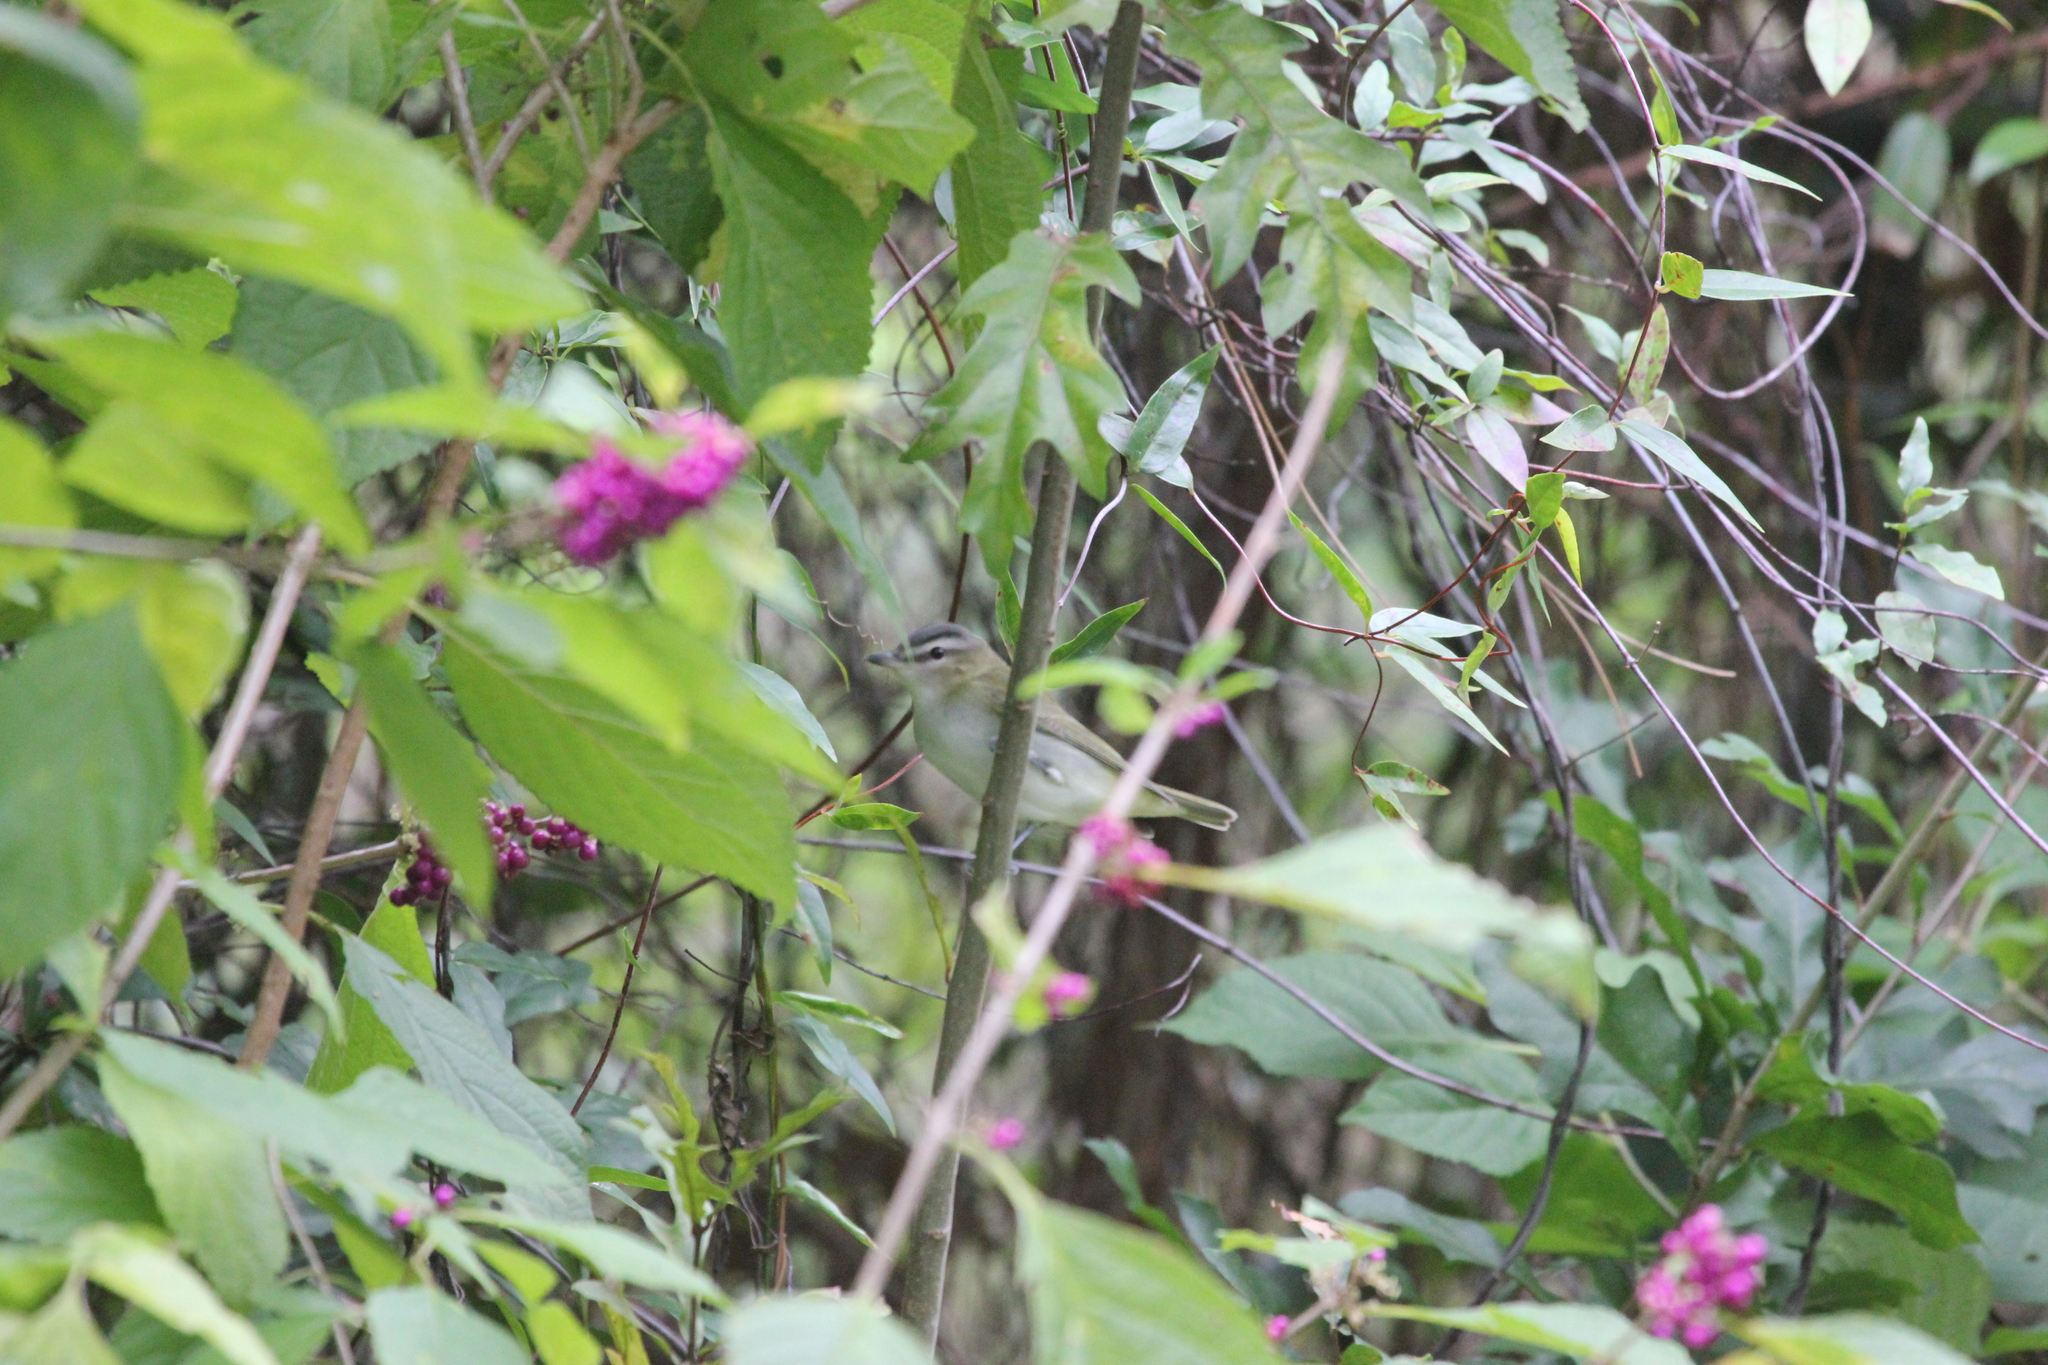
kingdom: Animalia
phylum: Chordata
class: Aves
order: Passeriformes
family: Vireonidae
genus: Vireo
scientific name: Vireo olivaceus
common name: Red-eyed vireo
